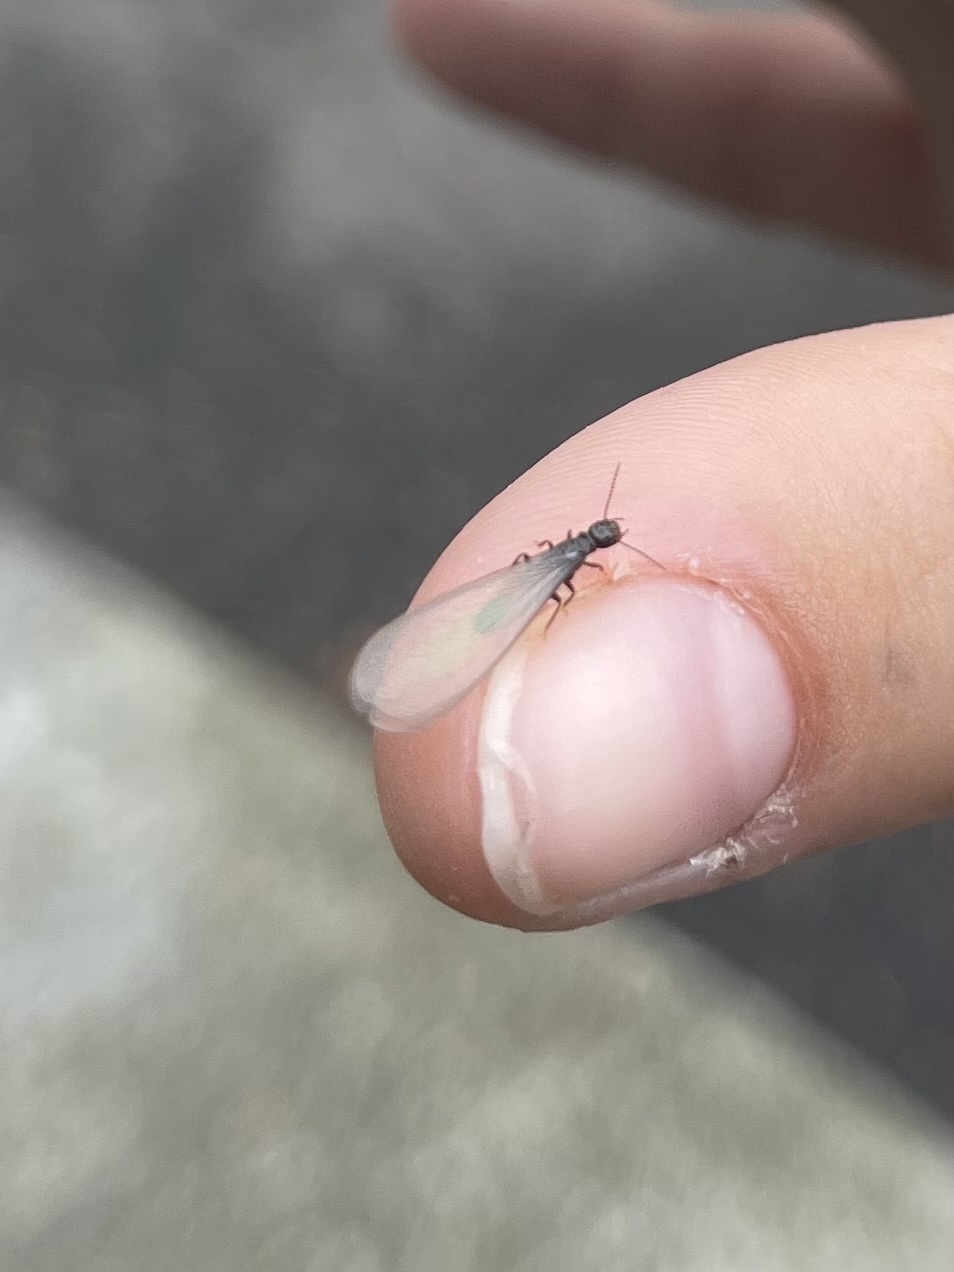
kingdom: Animalia
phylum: Arthropoda
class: Insecta
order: Blattodea
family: Rhinotermitidae
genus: Reticulitermes
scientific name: Reticulitermes hesperus
